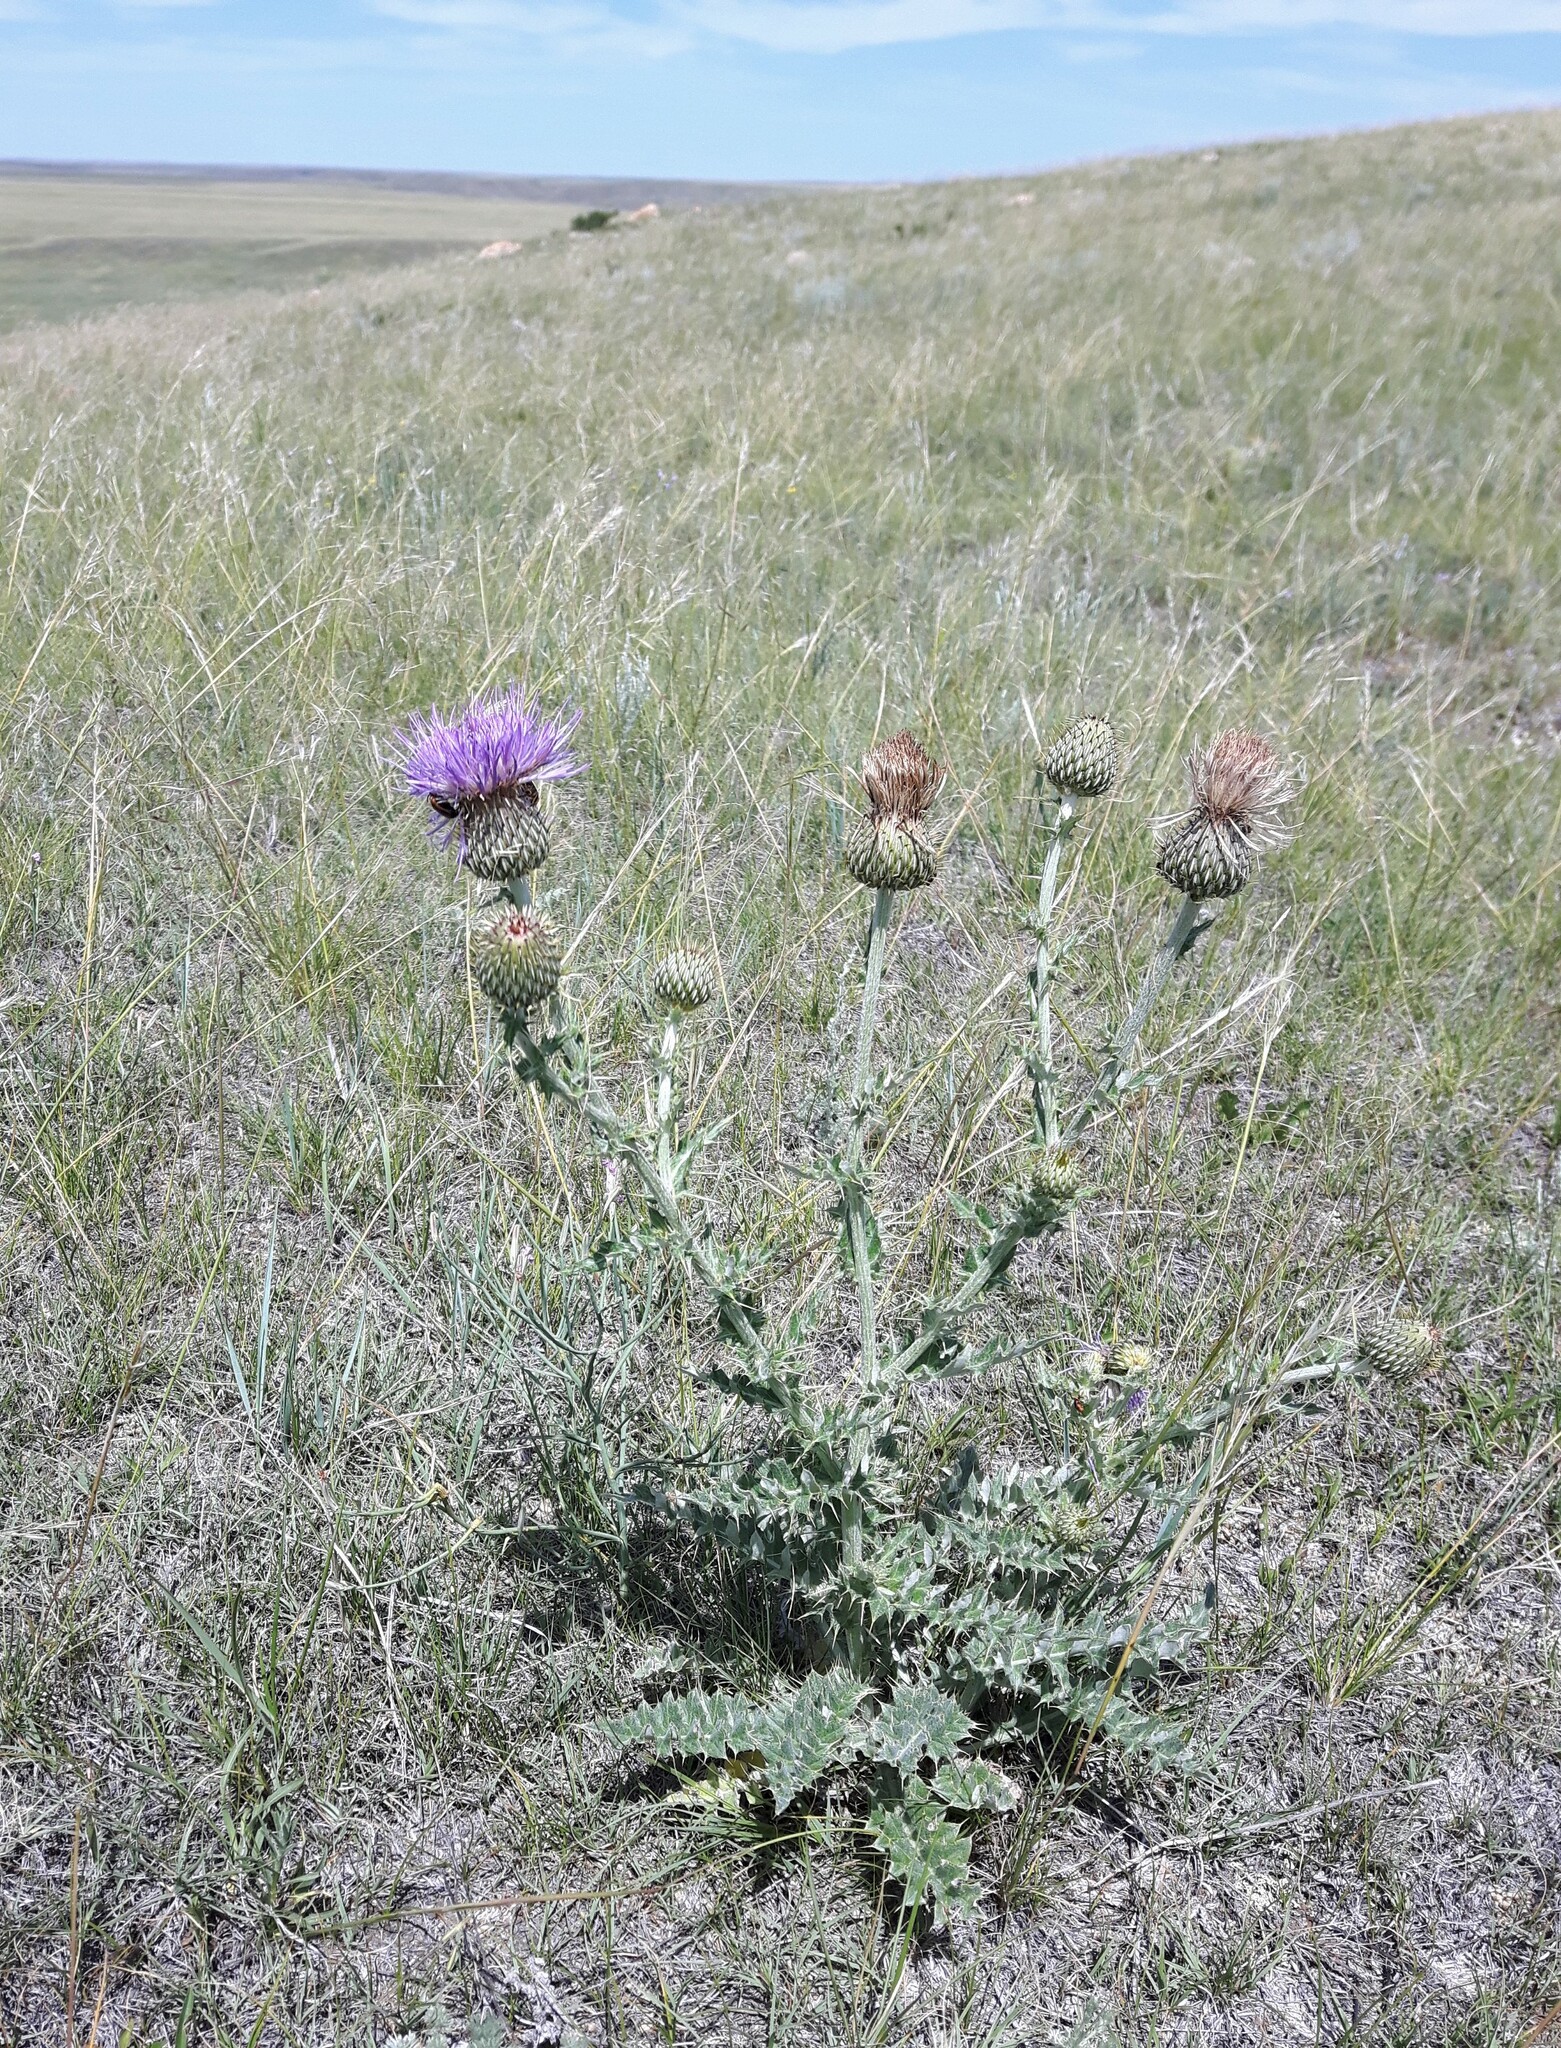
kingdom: Plantae
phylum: Tracheophyta
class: Magnoliopsida
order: Asterales
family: Asteraceae
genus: Cirsium
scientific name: Cirsium undulatum
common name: Pasture thistle
